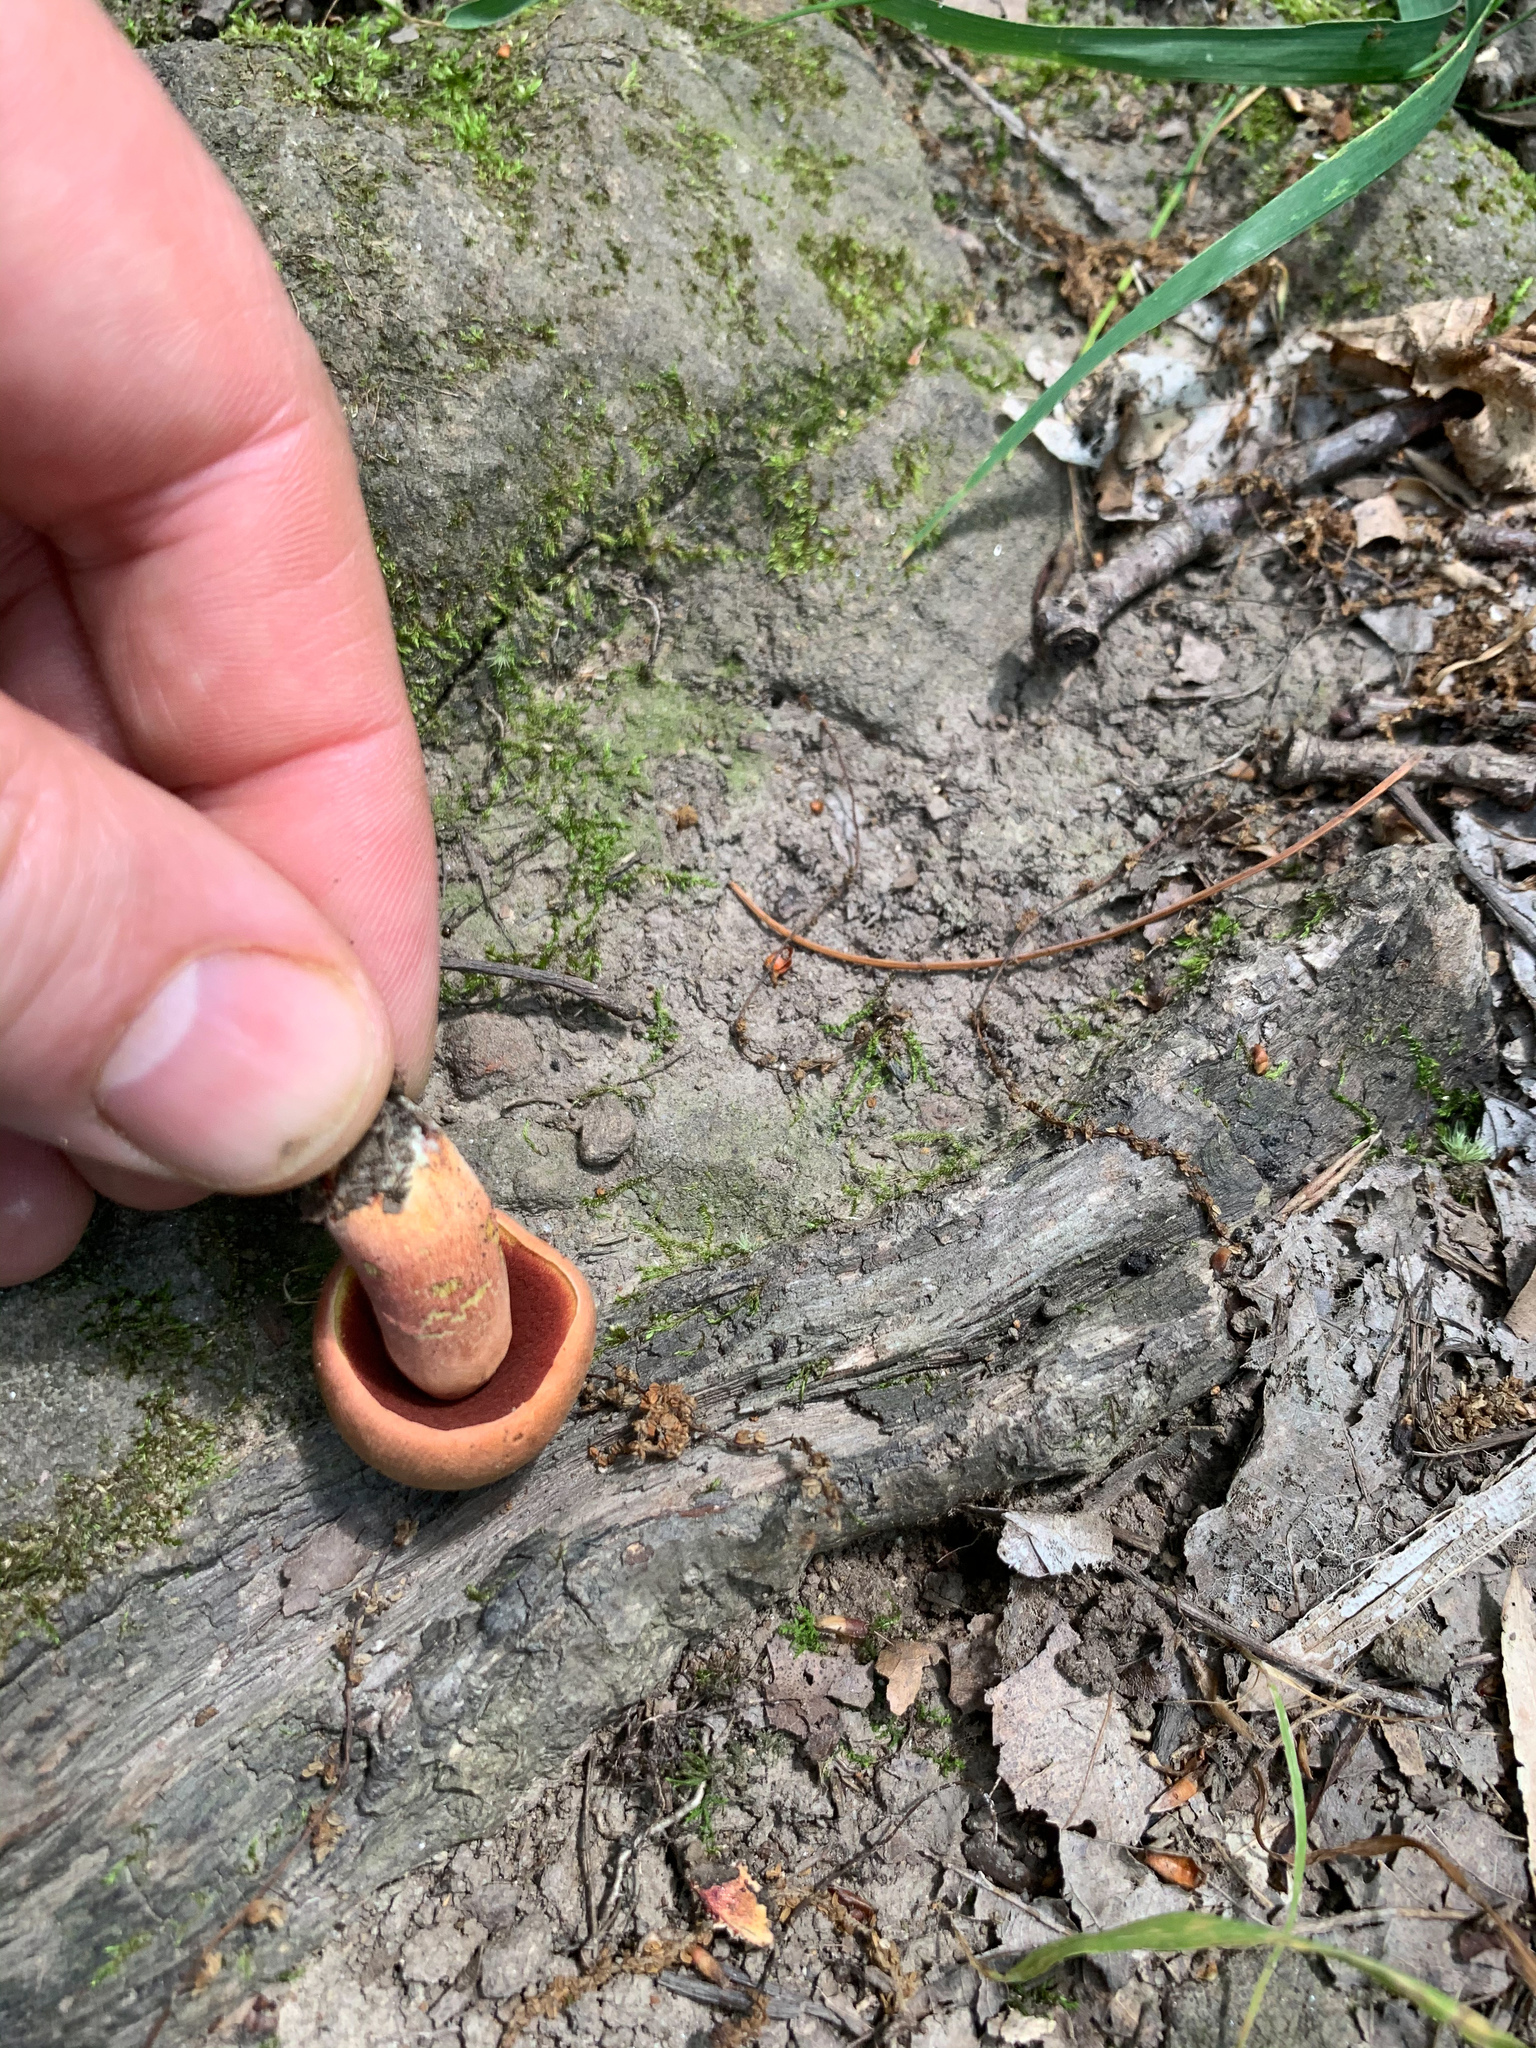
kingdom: Fungi
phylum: Basidiomycota
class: Agaricomycetes
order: Boletales
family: Boletaceae
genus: Neoboletus
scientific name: Neoboletus luridiformis
